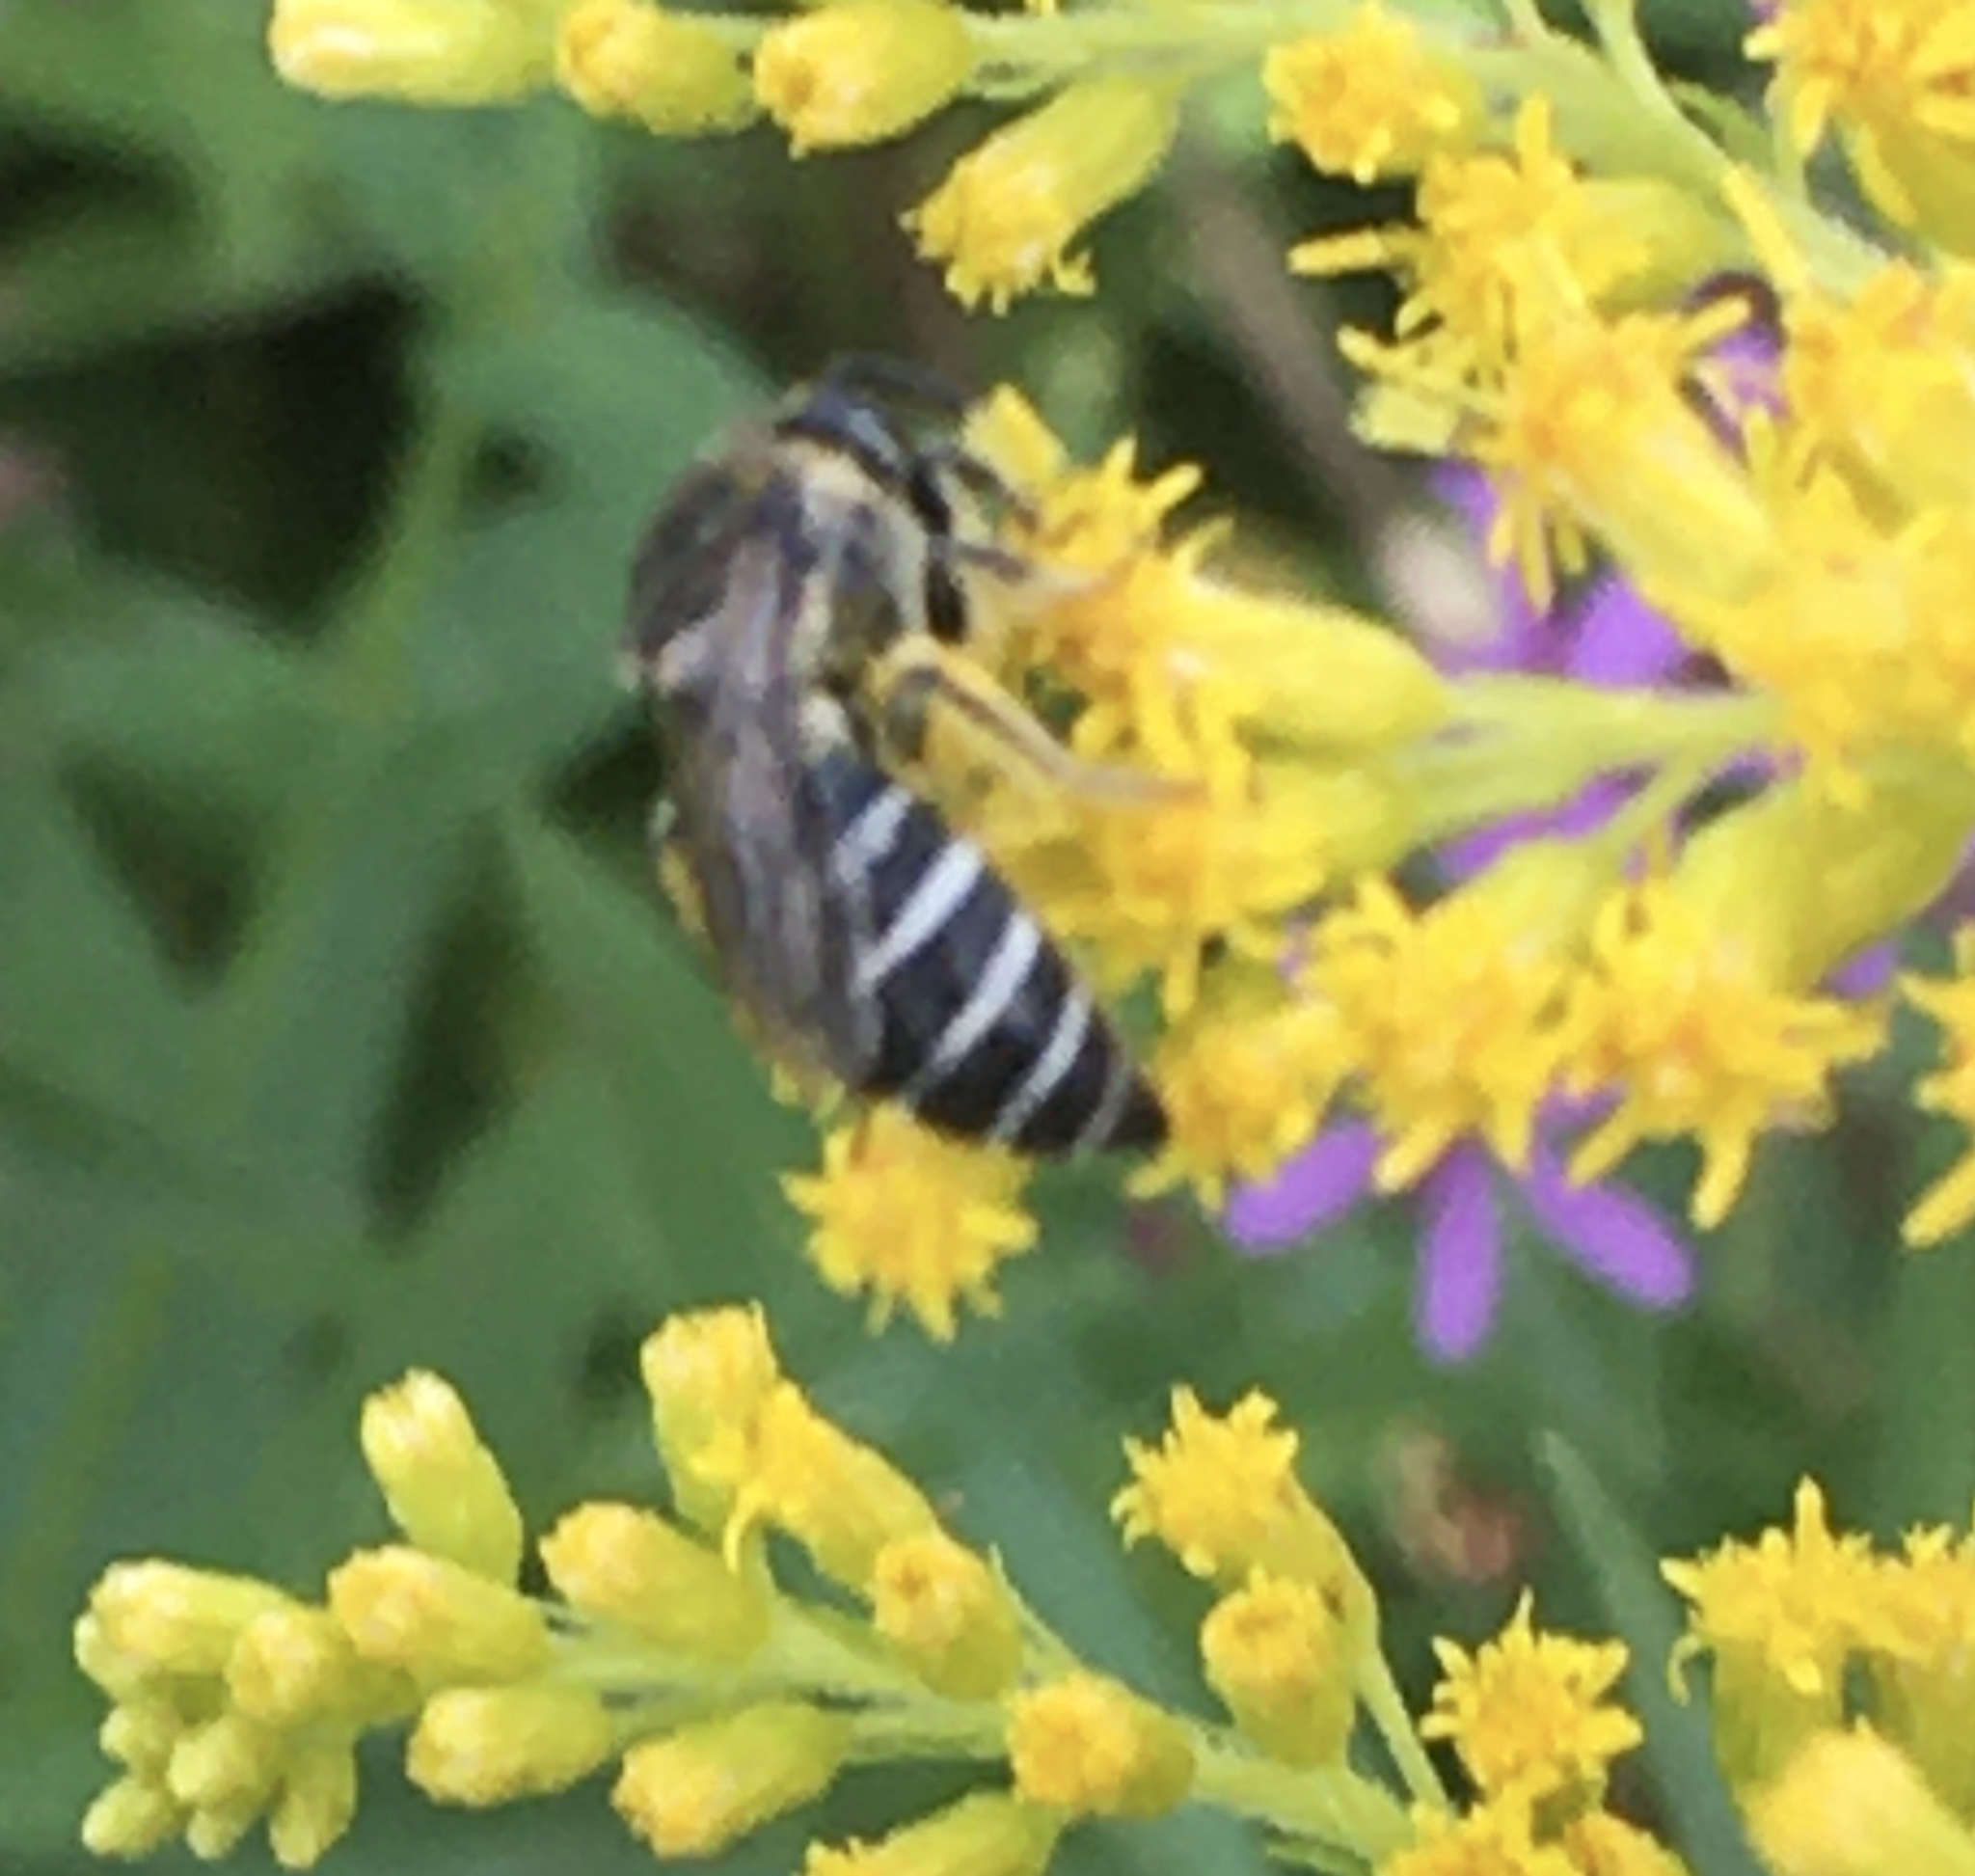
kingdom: Animalia
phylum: Arthropoda
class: Insecta
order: Hymenoptera
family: Colletidae
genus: Colletes
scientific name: Colletes simulans
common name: Spine-shouldered cellophane bee
